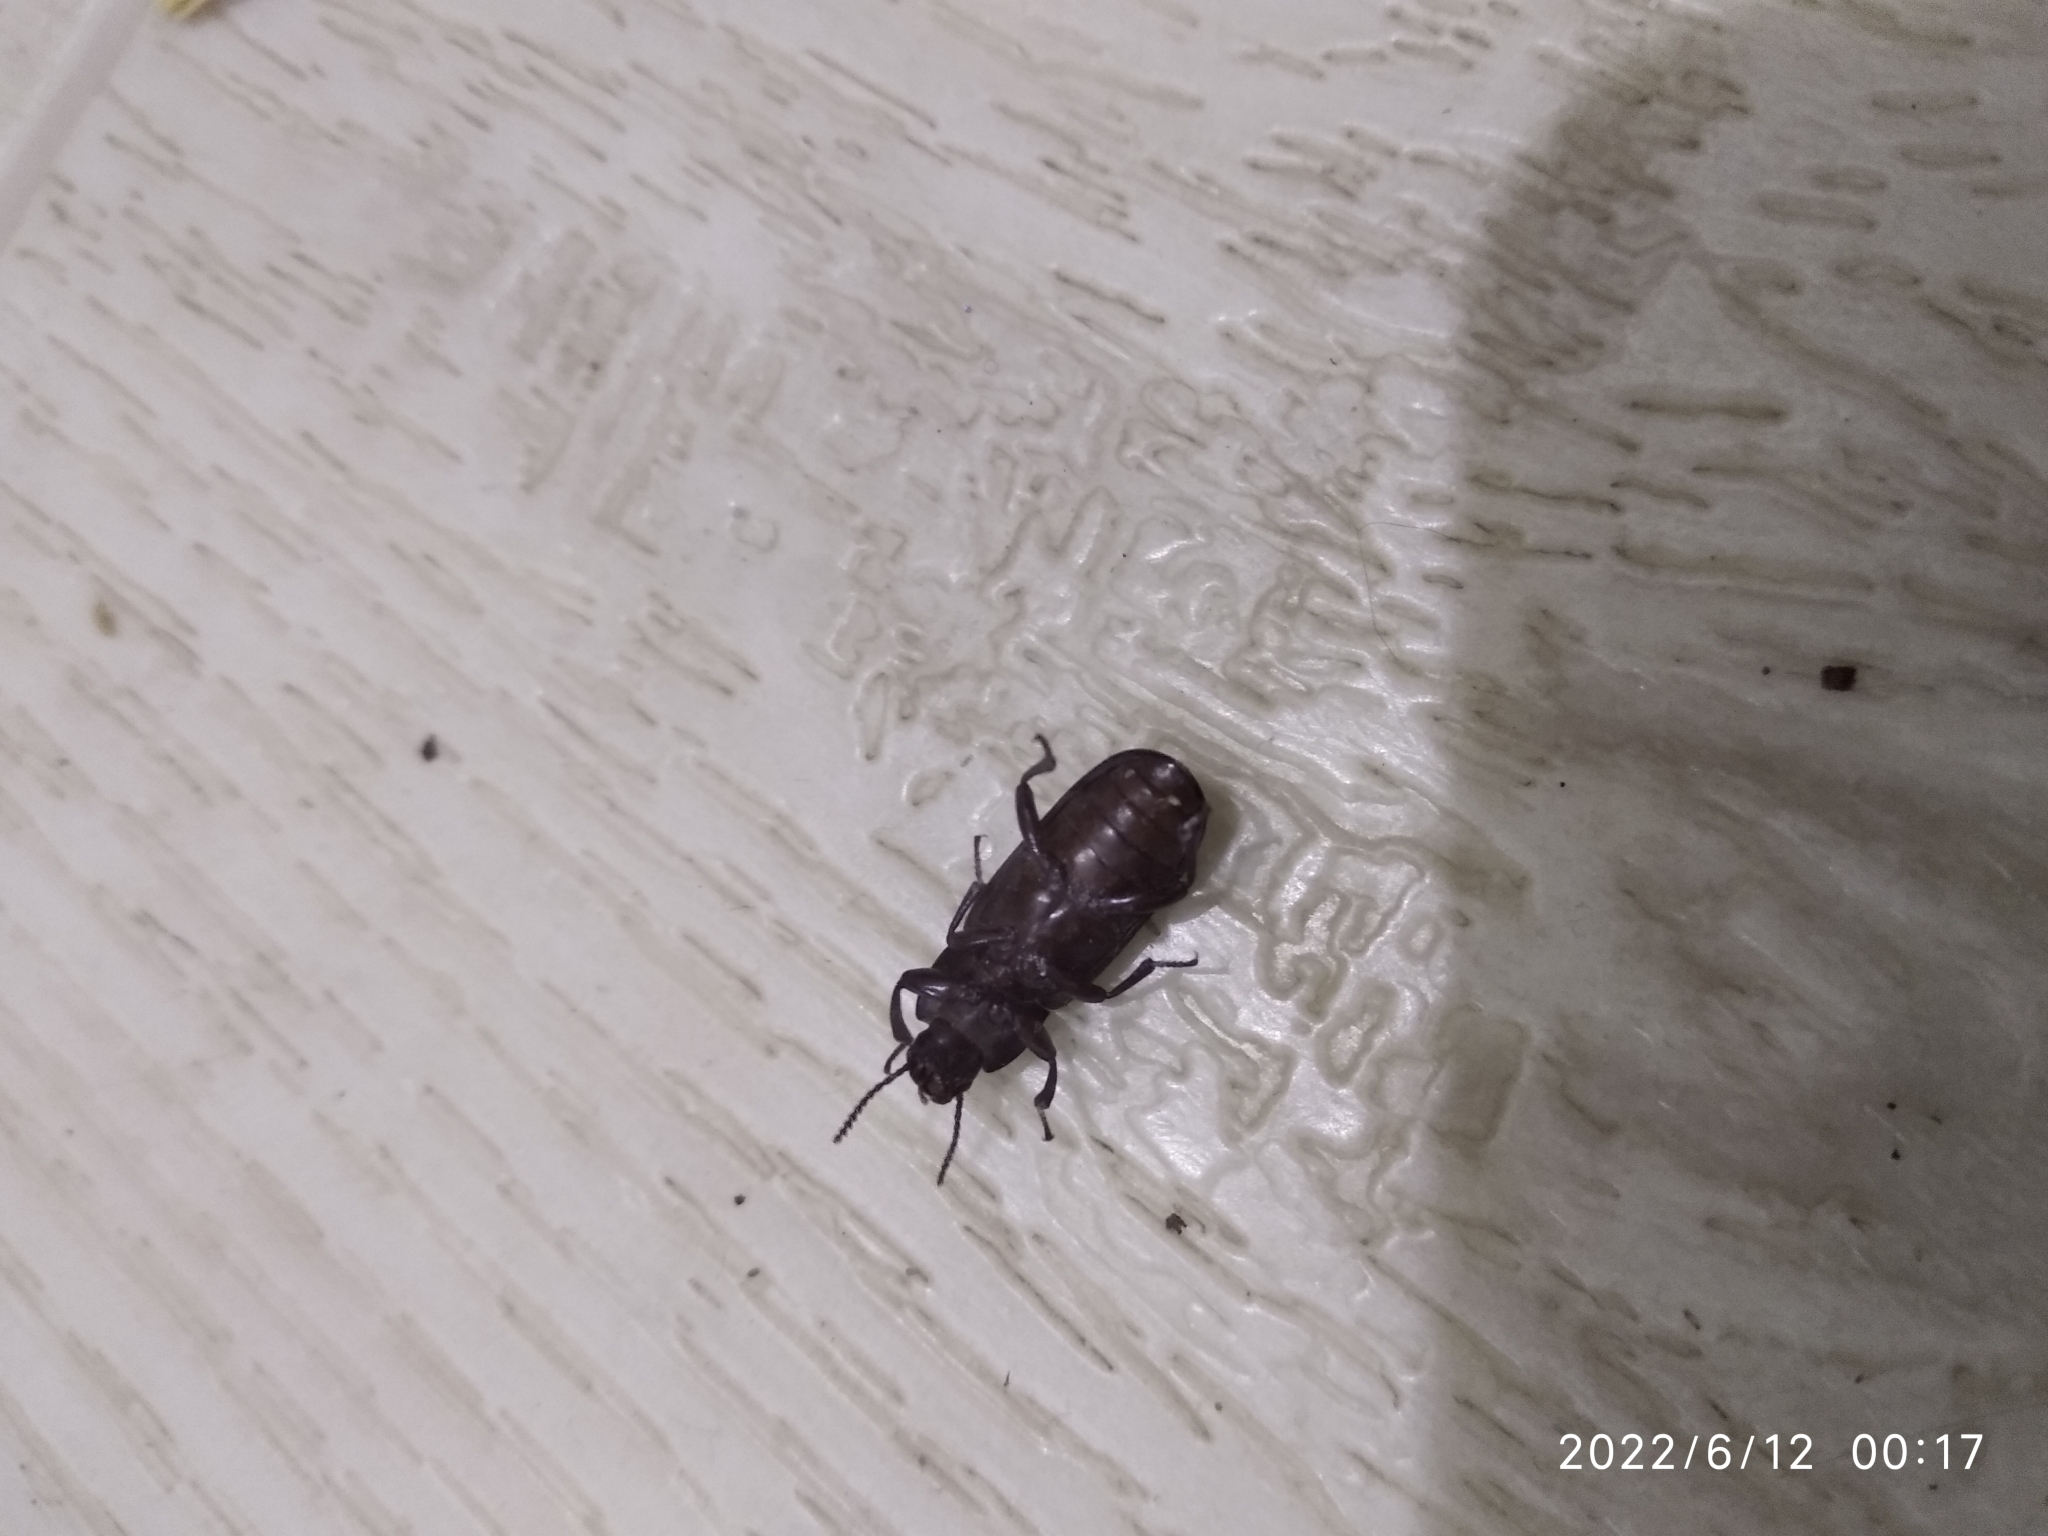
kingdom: Animalia
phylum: Arthropoda
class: Insecta
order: Coleoptera
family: Tenebrionidae
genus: Tenebrio
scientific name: Tenebrio molitor
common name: Hardback beetle
